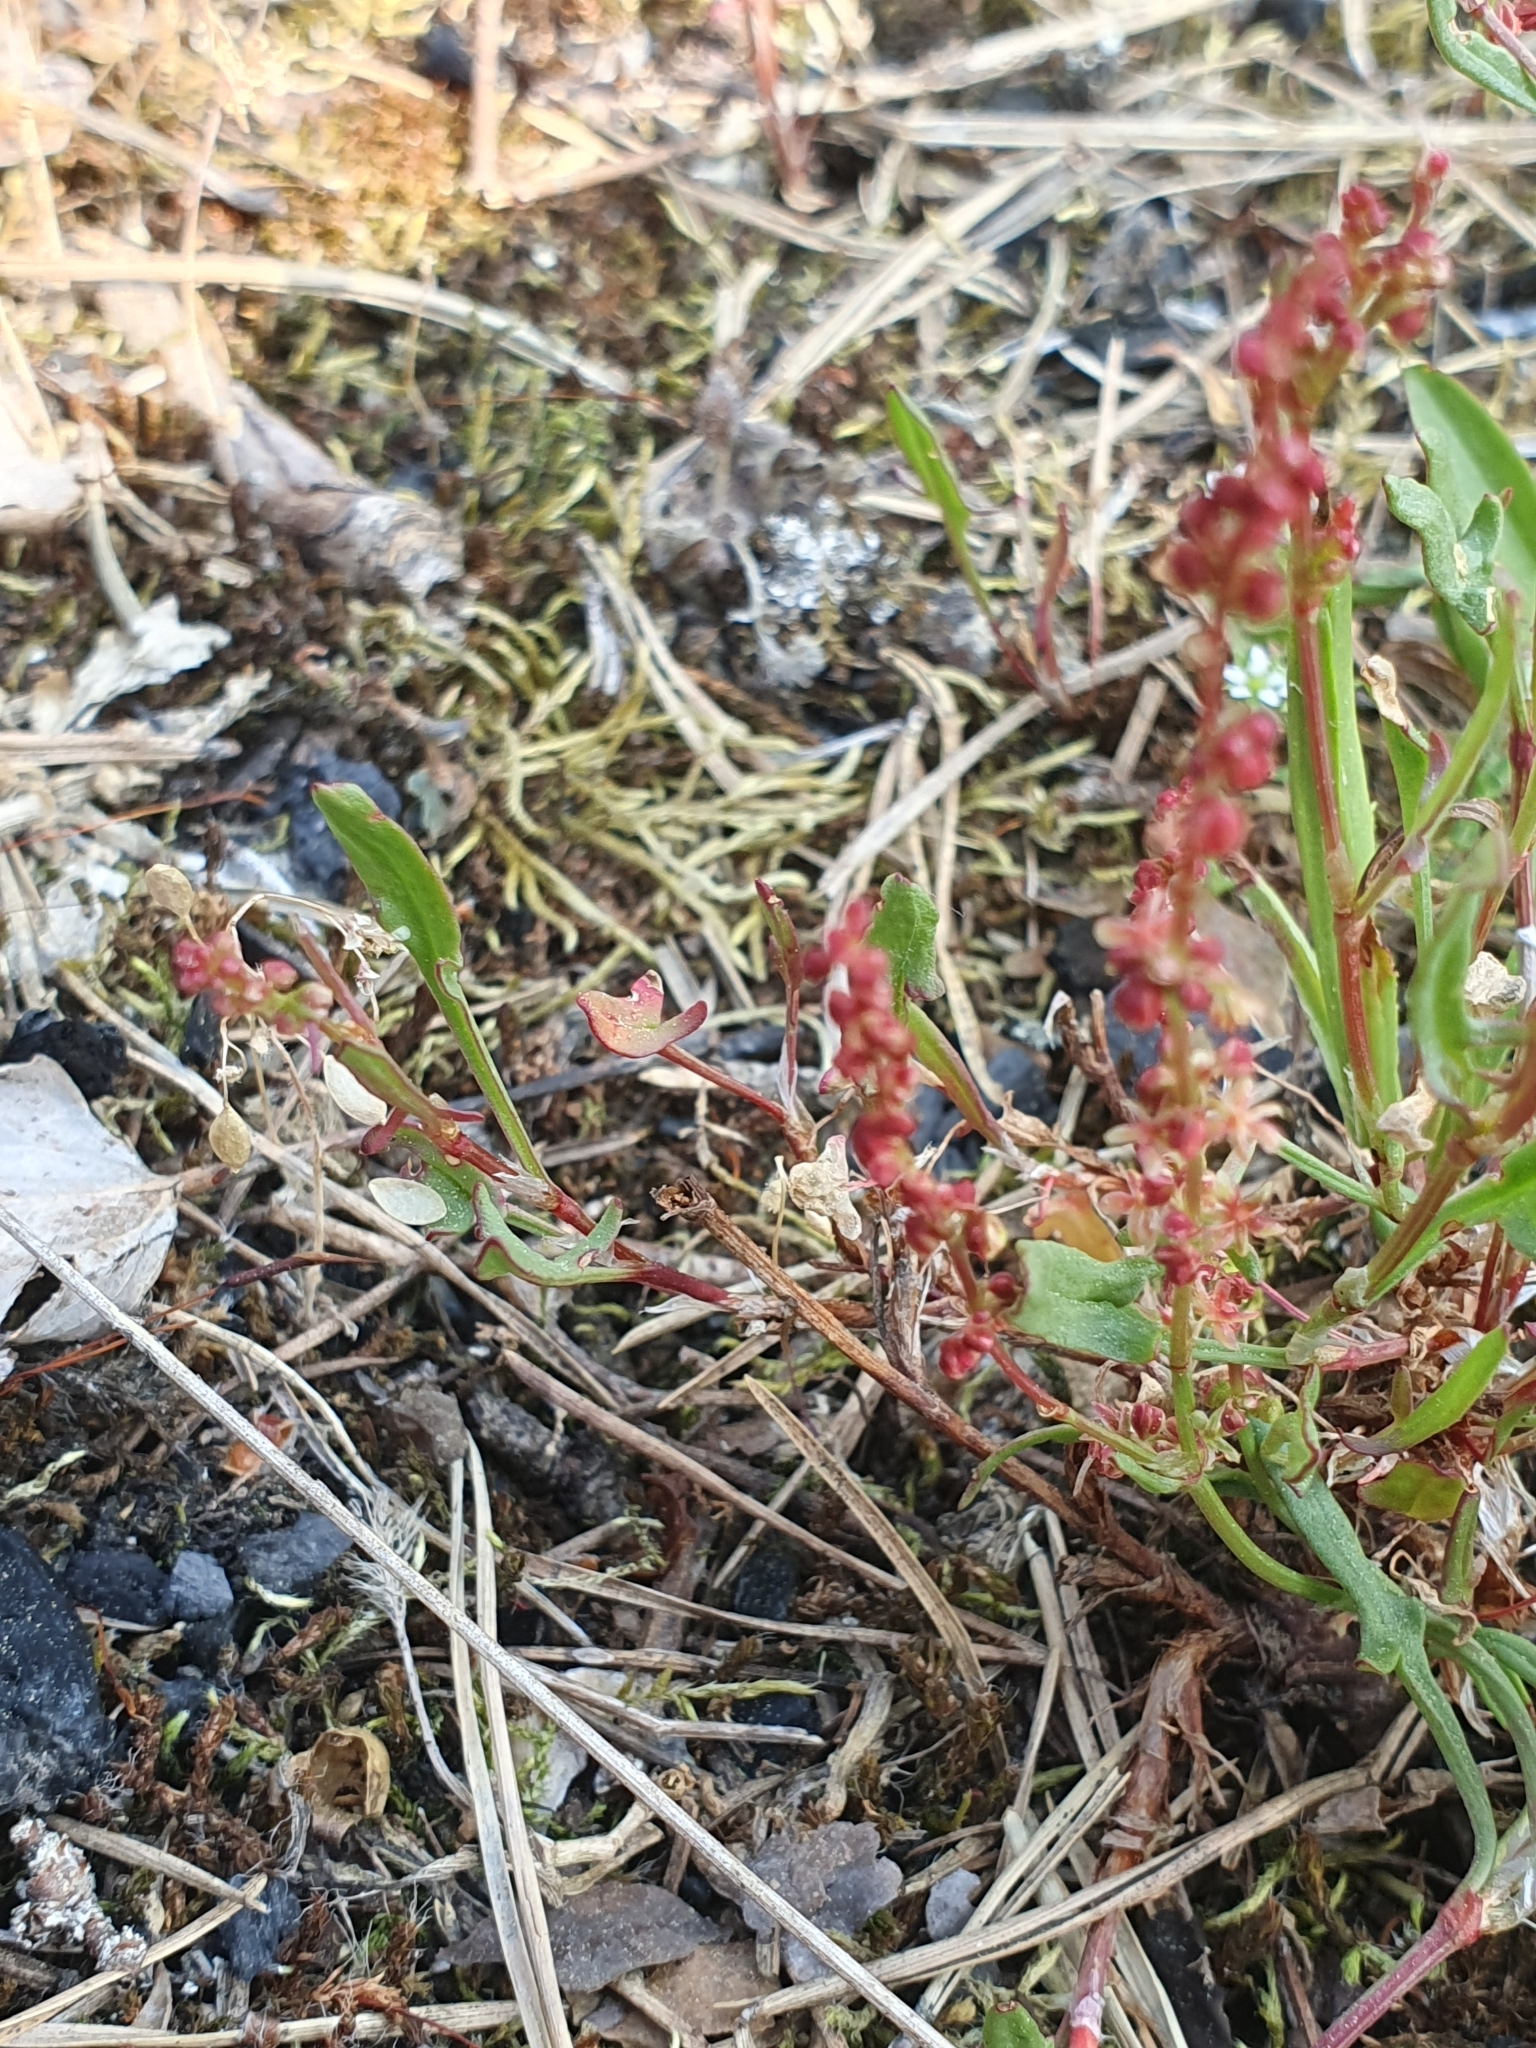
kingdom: Plantae
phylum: Tracheophyta
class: Magnoliopsida
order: Caryophyllales
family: Polygonaceae
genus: Rumex
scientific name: Rumex acetosella
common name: Common sheep sorrel
